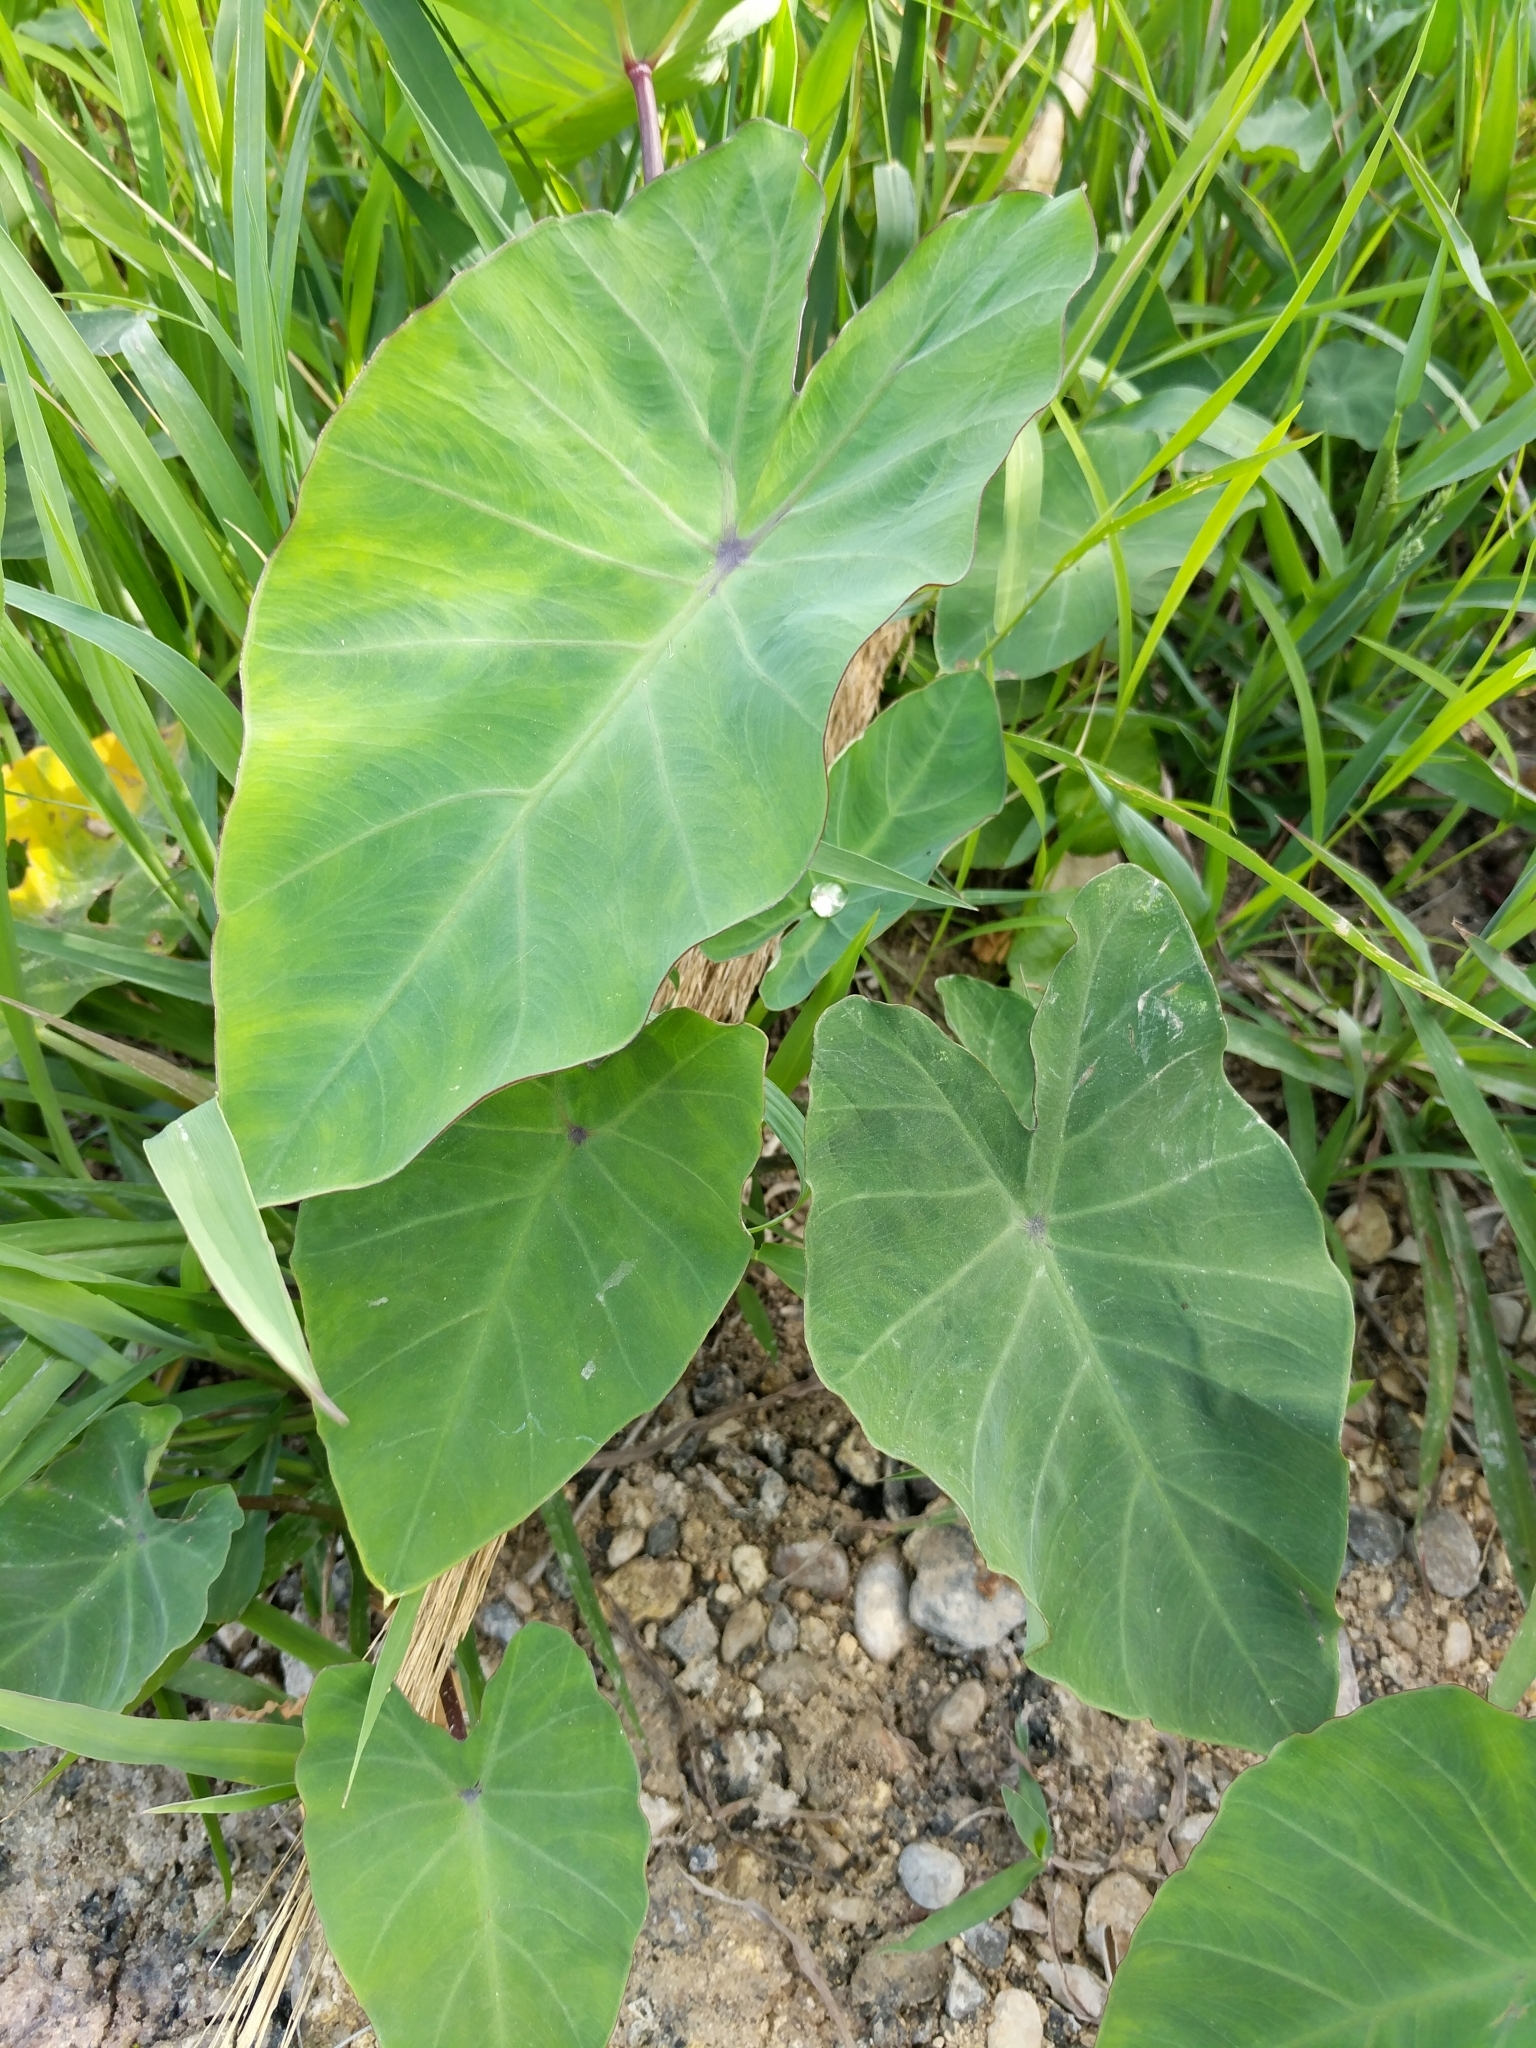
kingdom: Plantae
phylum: Tracheophyta
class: Liliopsida
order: Alismatales
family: Araceae
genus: Colocasia
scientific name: Colocasia esculenta
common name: Taro
